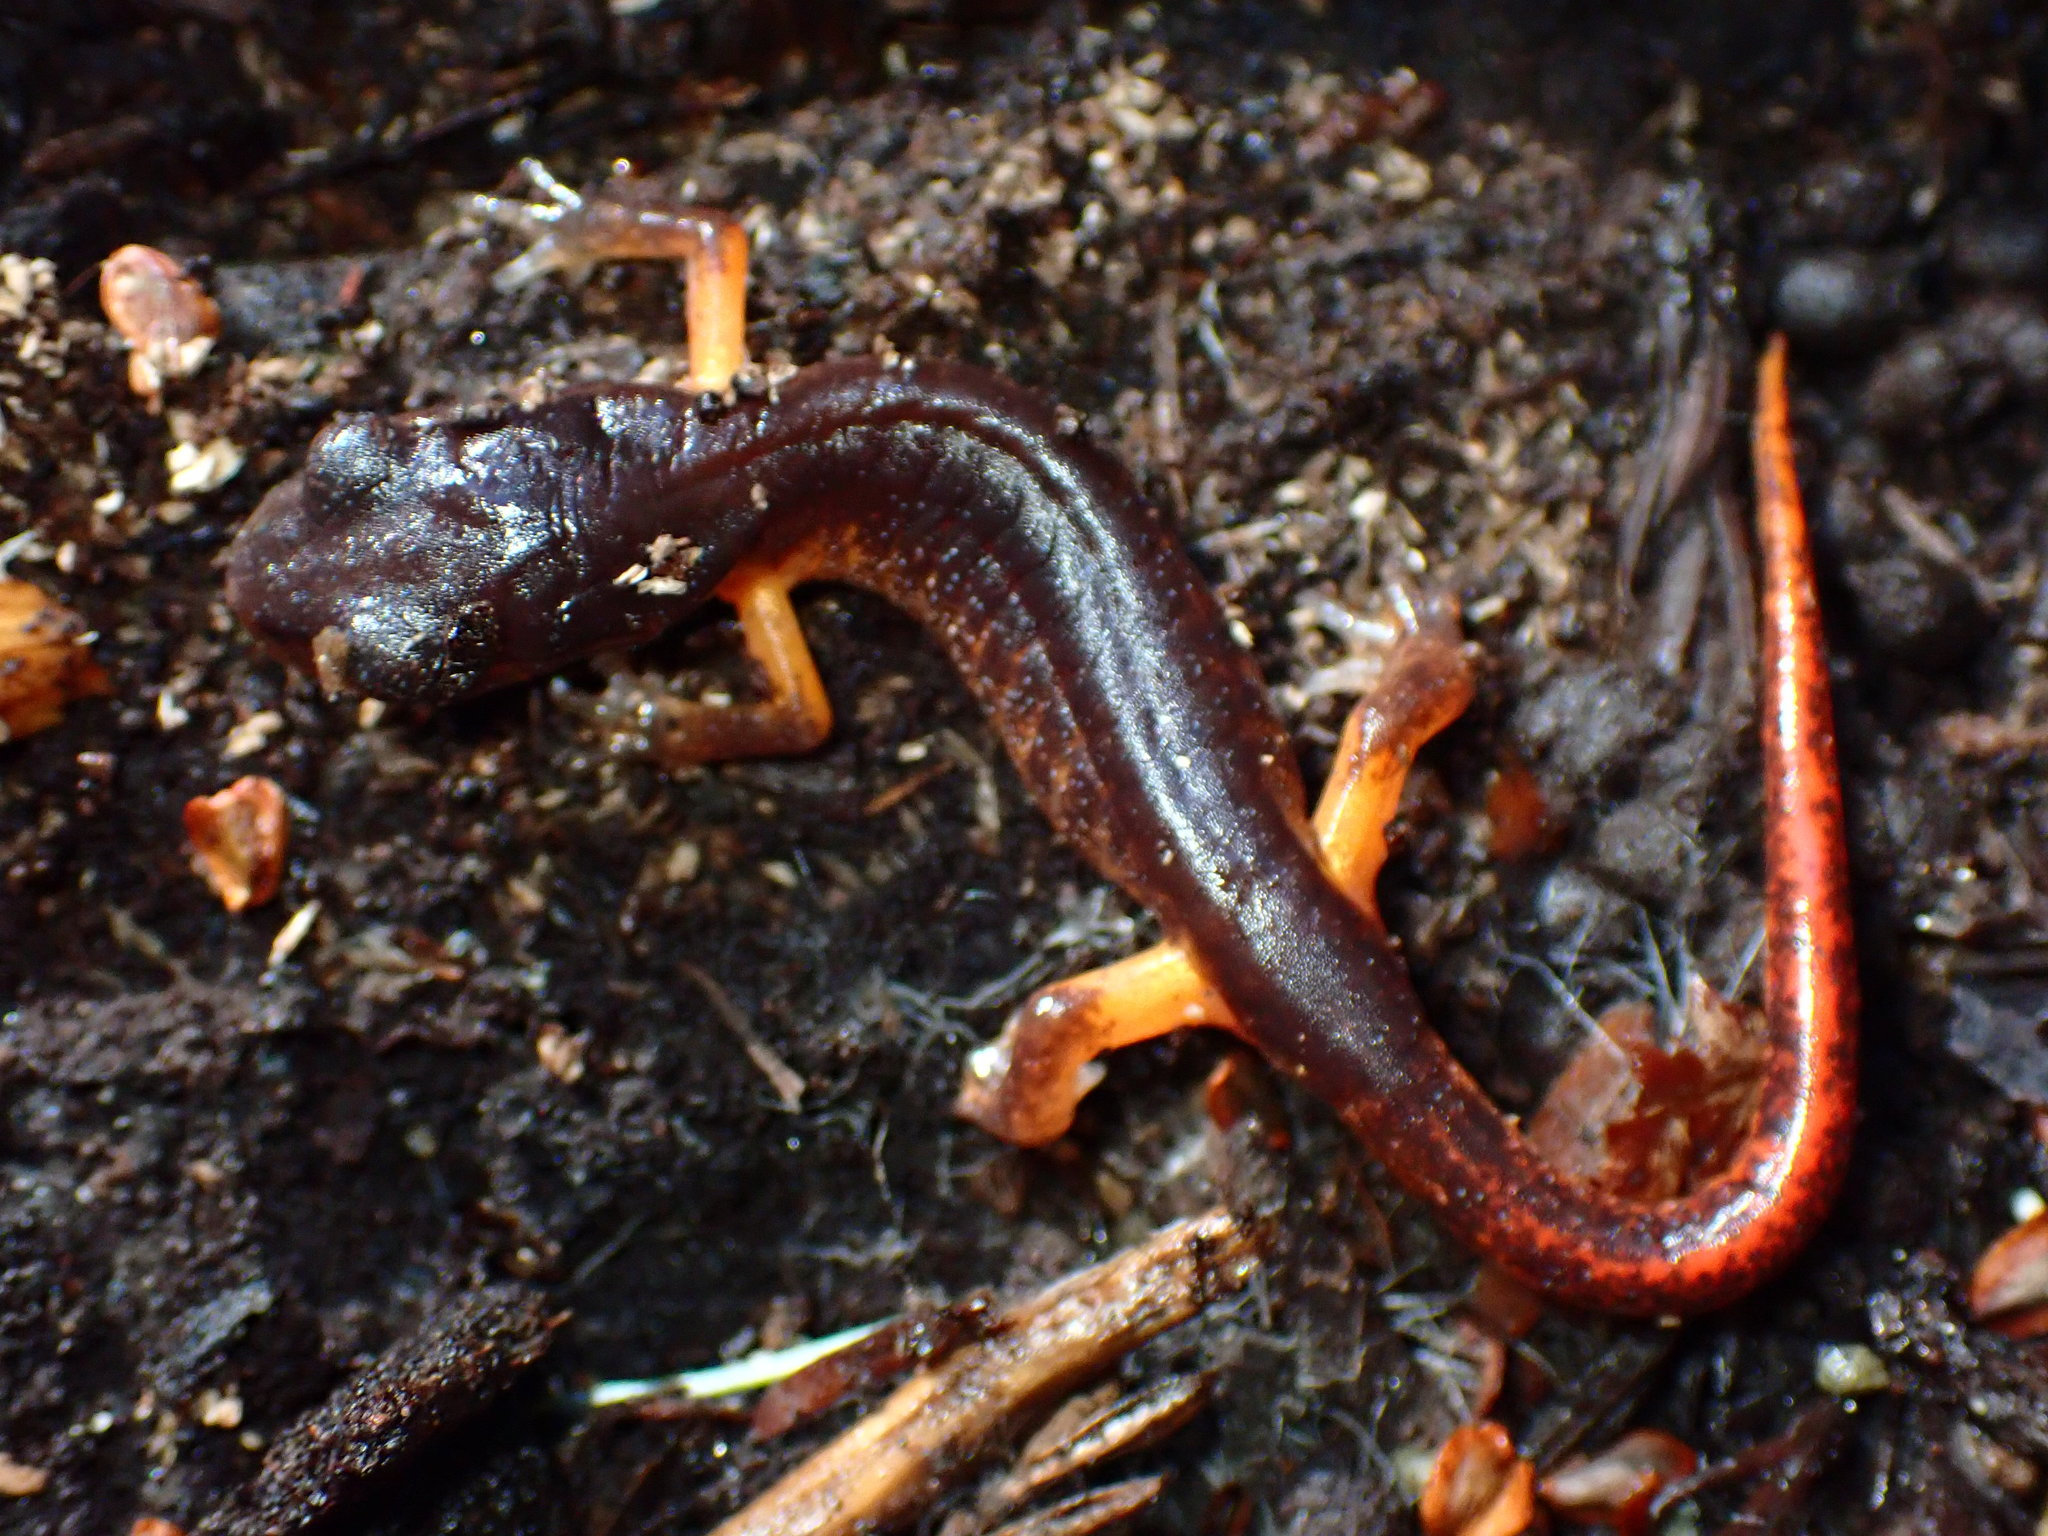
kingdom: Animalia
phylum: Chordata
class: Amphibia
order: Caudata
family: Plethodontidae
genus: Ensatina
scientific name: Ensatina eschscholtzii
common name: Ensatina
